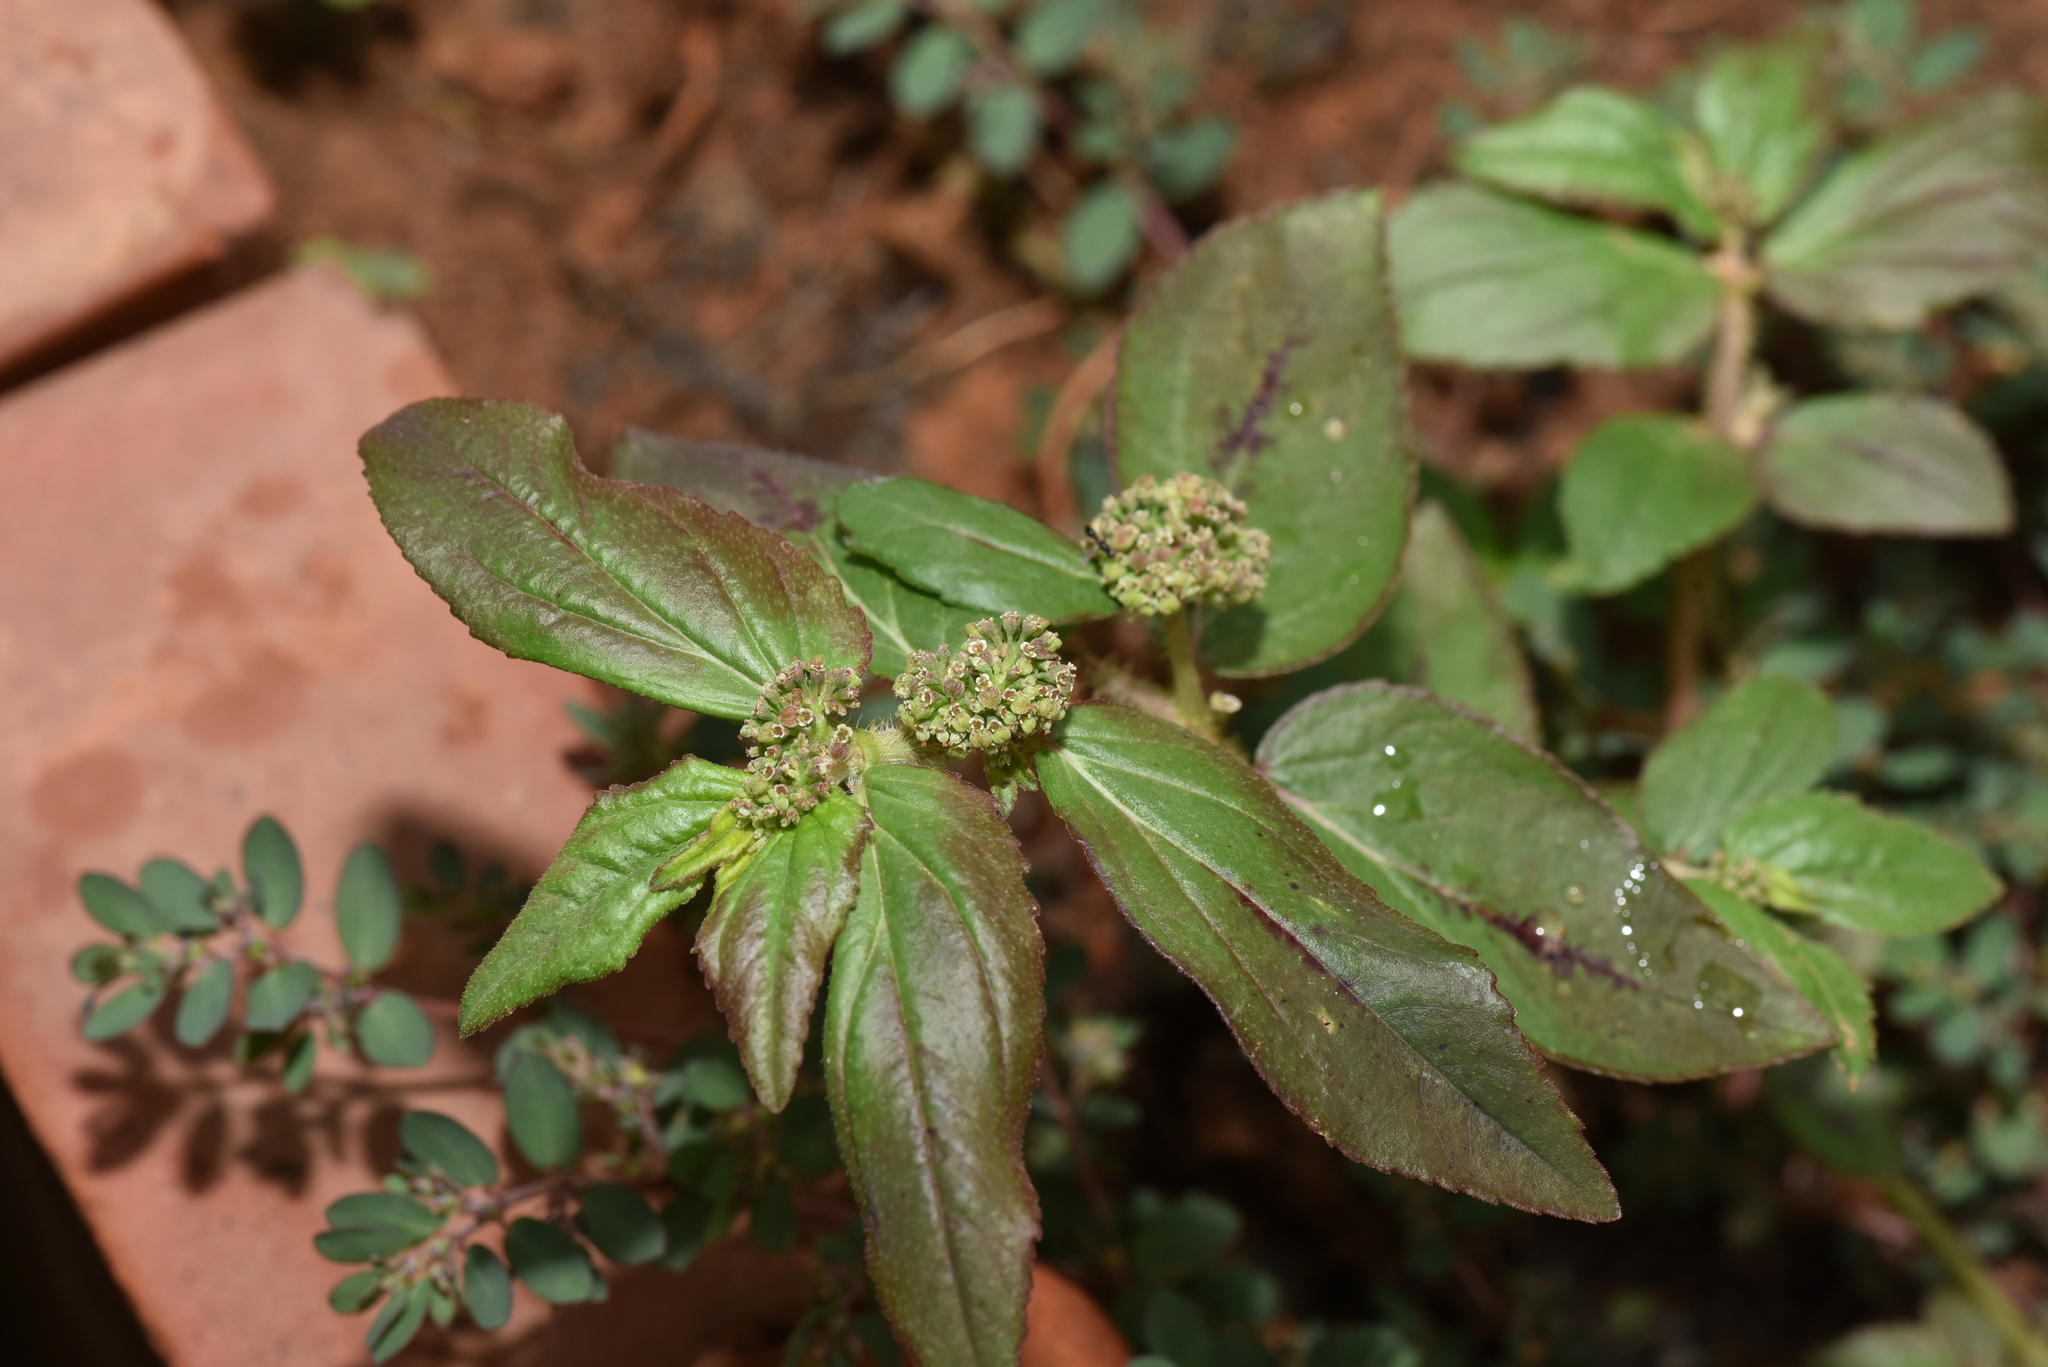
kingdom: Plantae
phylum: Tracheophyta
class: Magnoliopsida
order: Malpighiales
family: Euphorbiaceae
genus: Euphorbia
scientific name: Euphorbia hirta
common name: Pillpod sandmat
